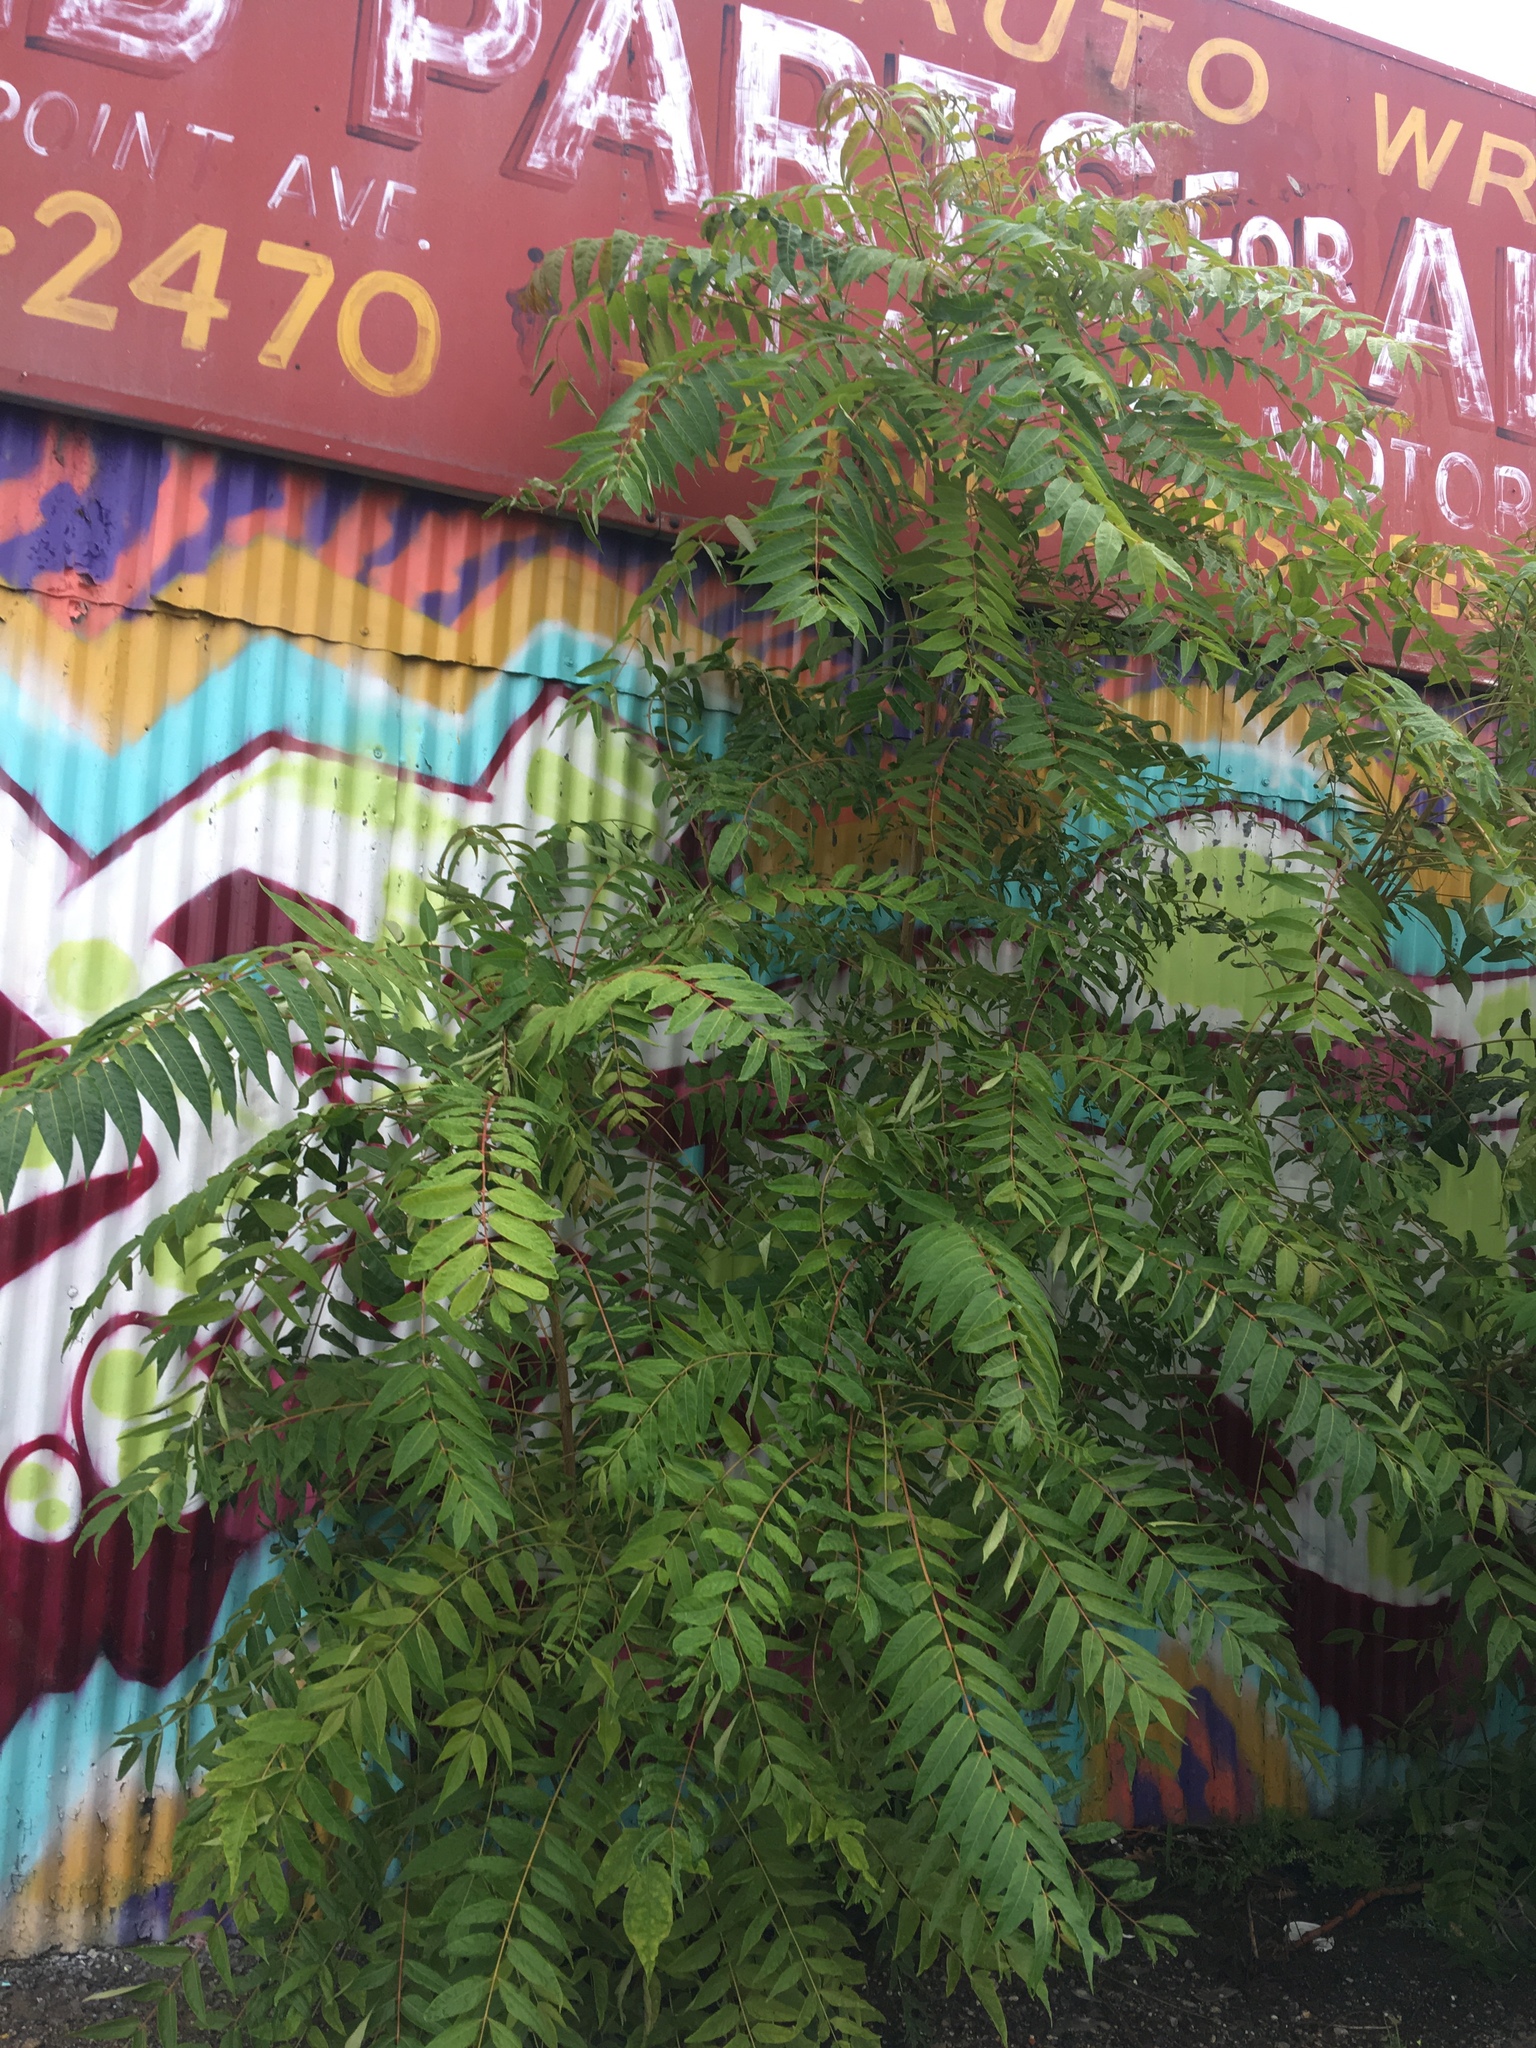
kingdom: Plantae
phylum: Tracheophyta
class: Magnoliopsida
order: Sapindales
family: Simaroubaceae
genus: Ailanthus
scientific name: Ailanthus altissima
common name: Tree-of-heaven
